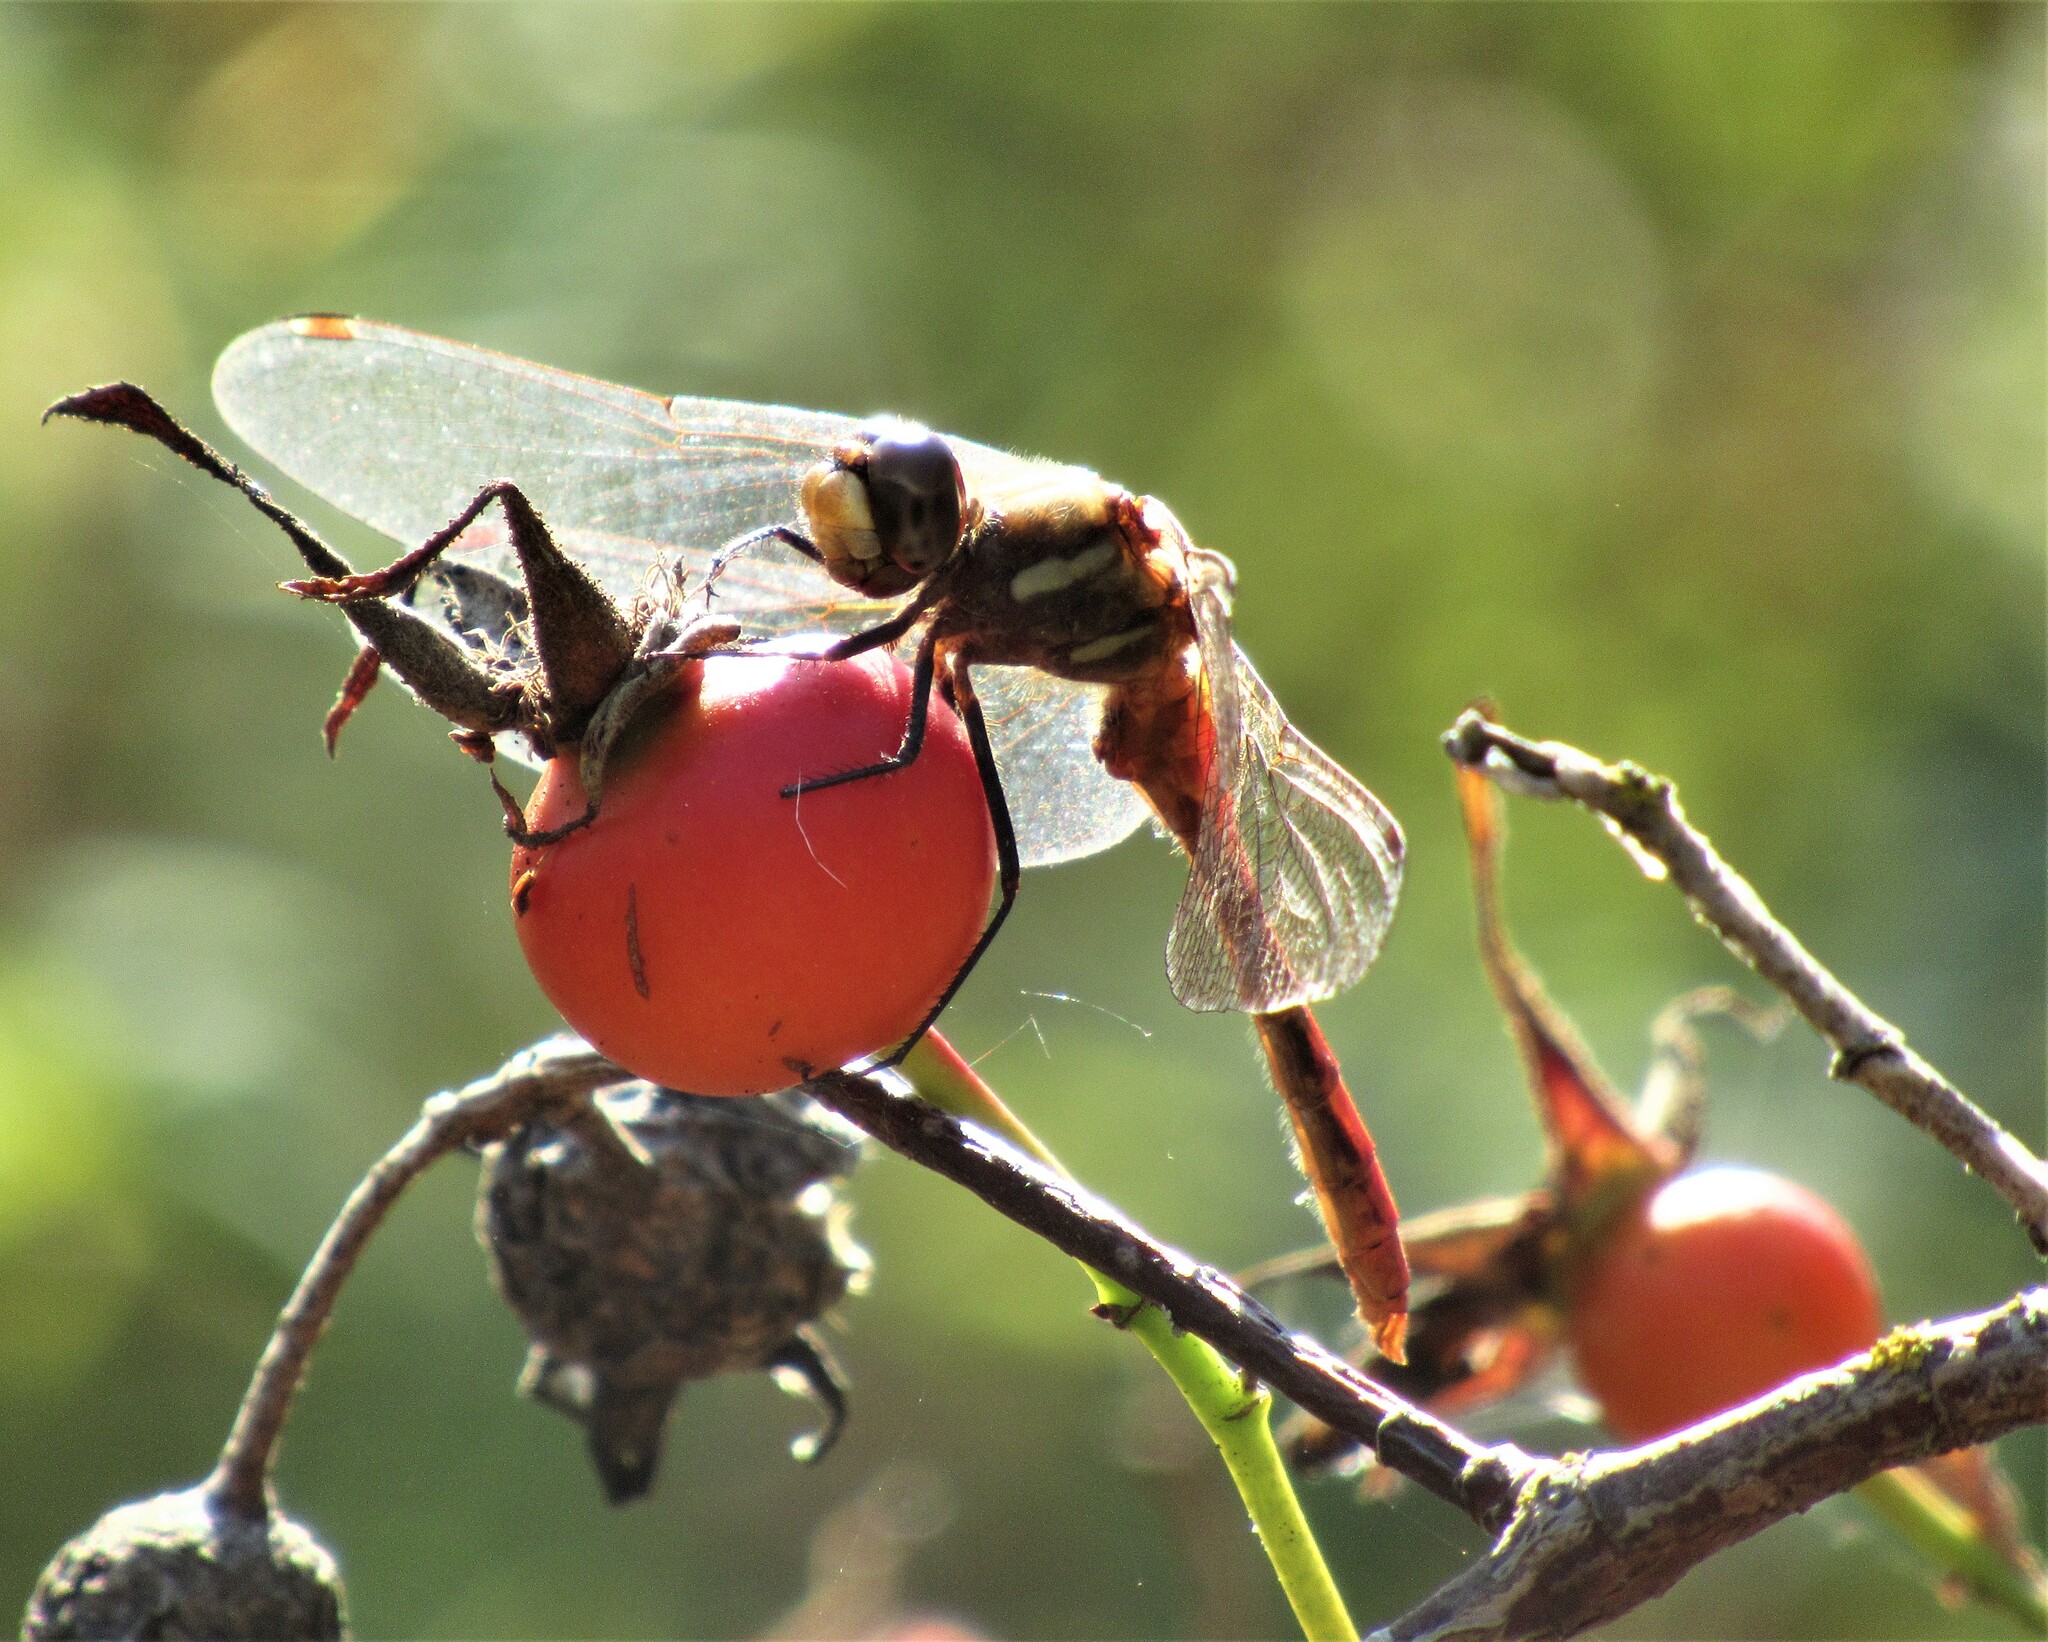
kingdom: Animalia
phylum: Arthropoda
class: Insecta
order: Odonata
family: Libellulidae
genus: Sympetrum
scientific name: Sympetrum pallipes
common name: Striped meadowhawk
